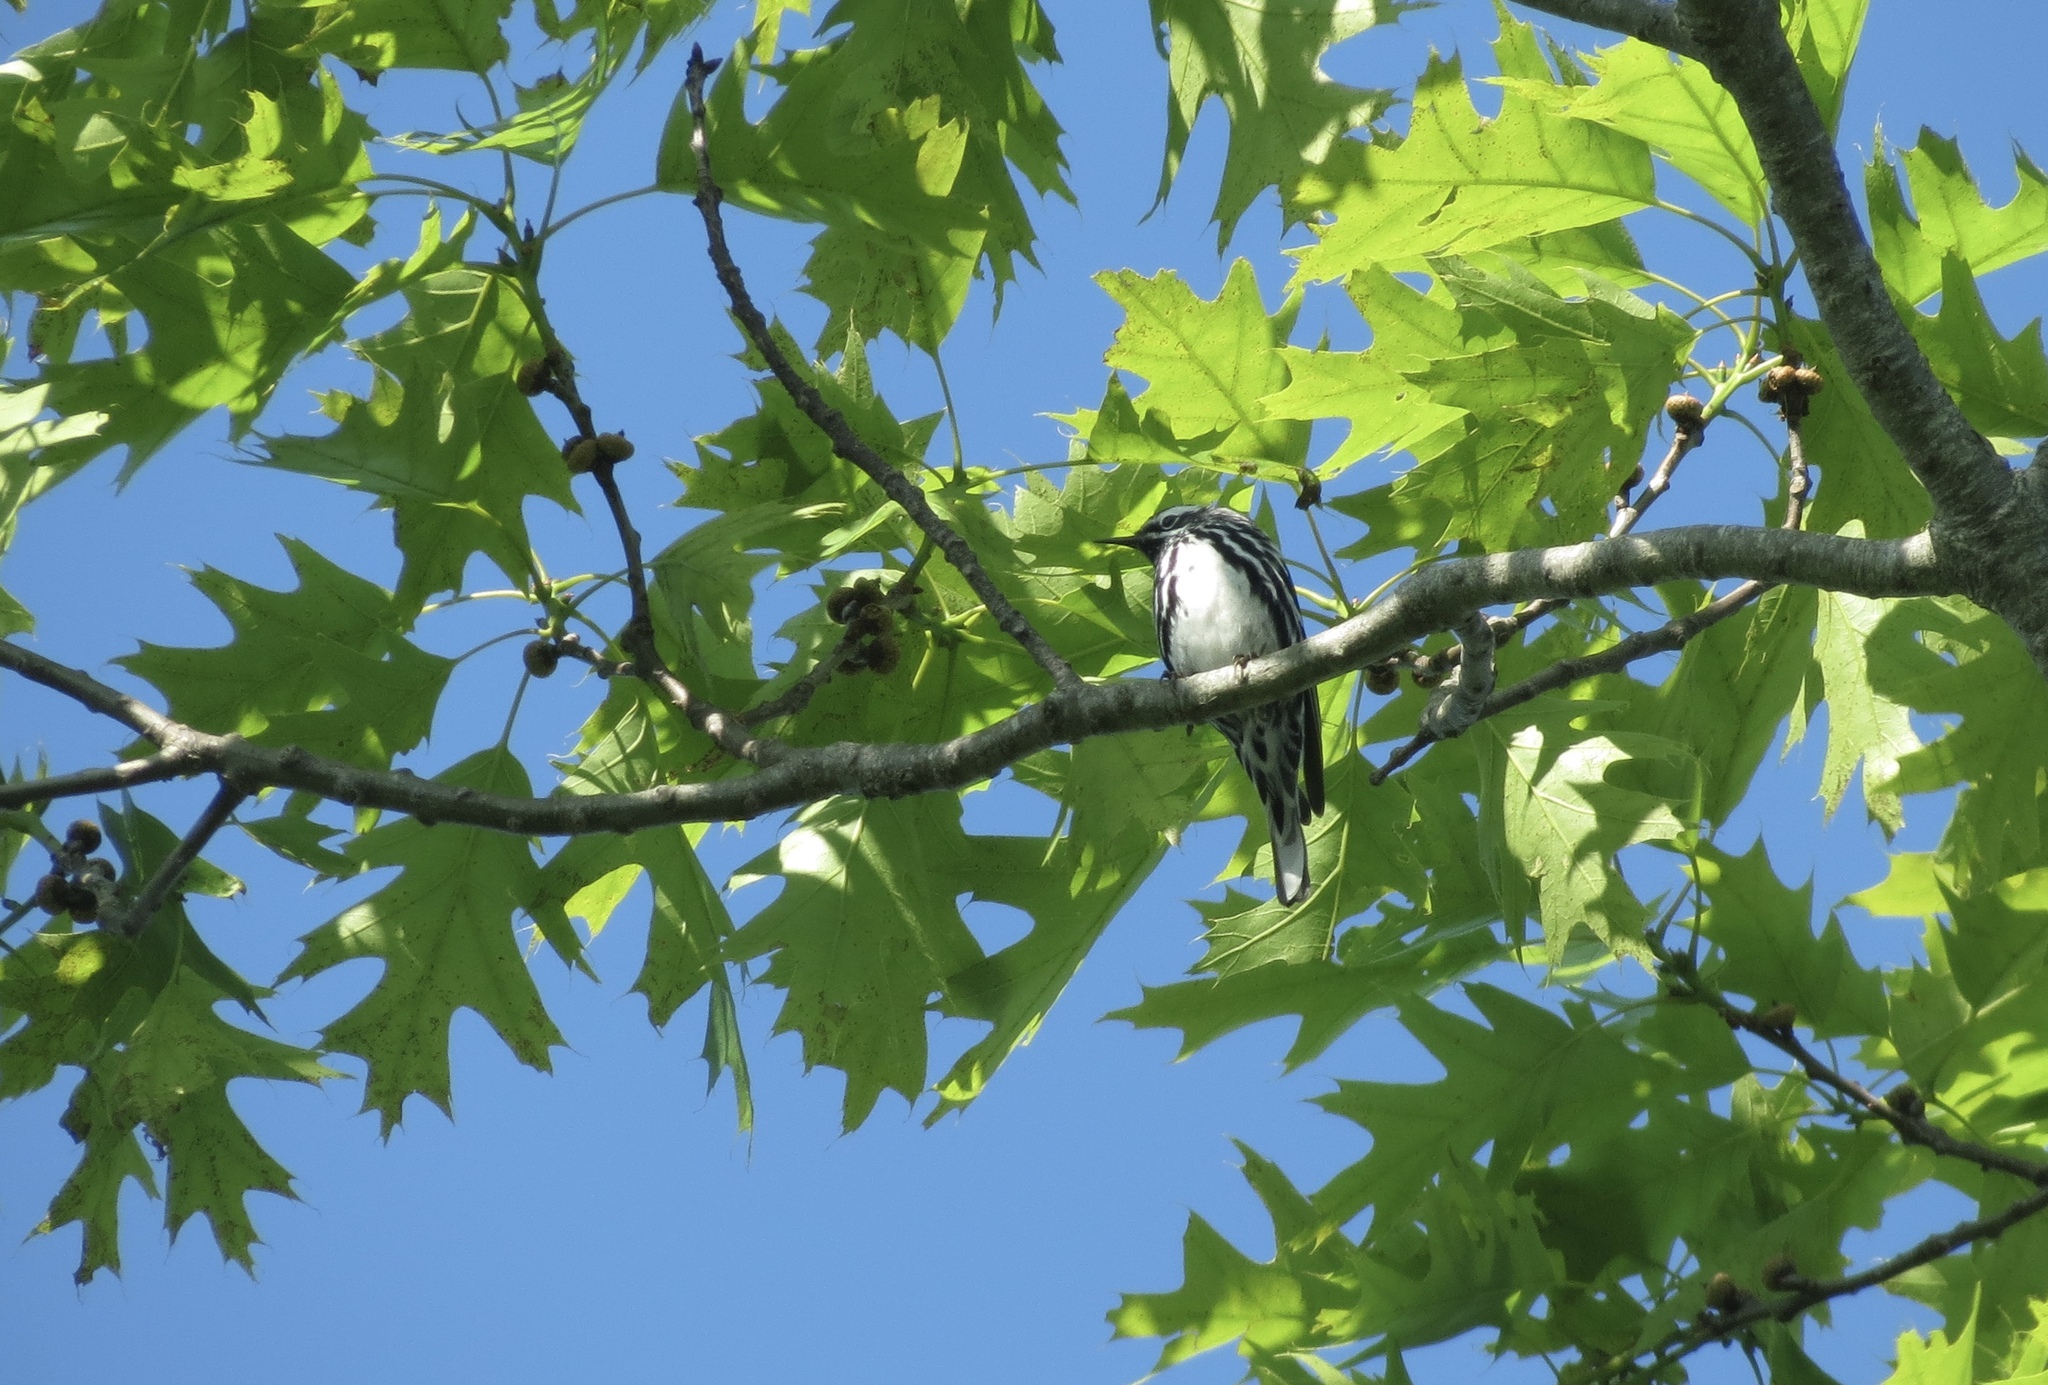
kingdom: Animalia
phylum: Chordata
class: Aves
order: Passeriformes
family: Parulidae
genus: Mniotilta
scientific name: Mniotilta varia
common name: Black-and-white warbler
